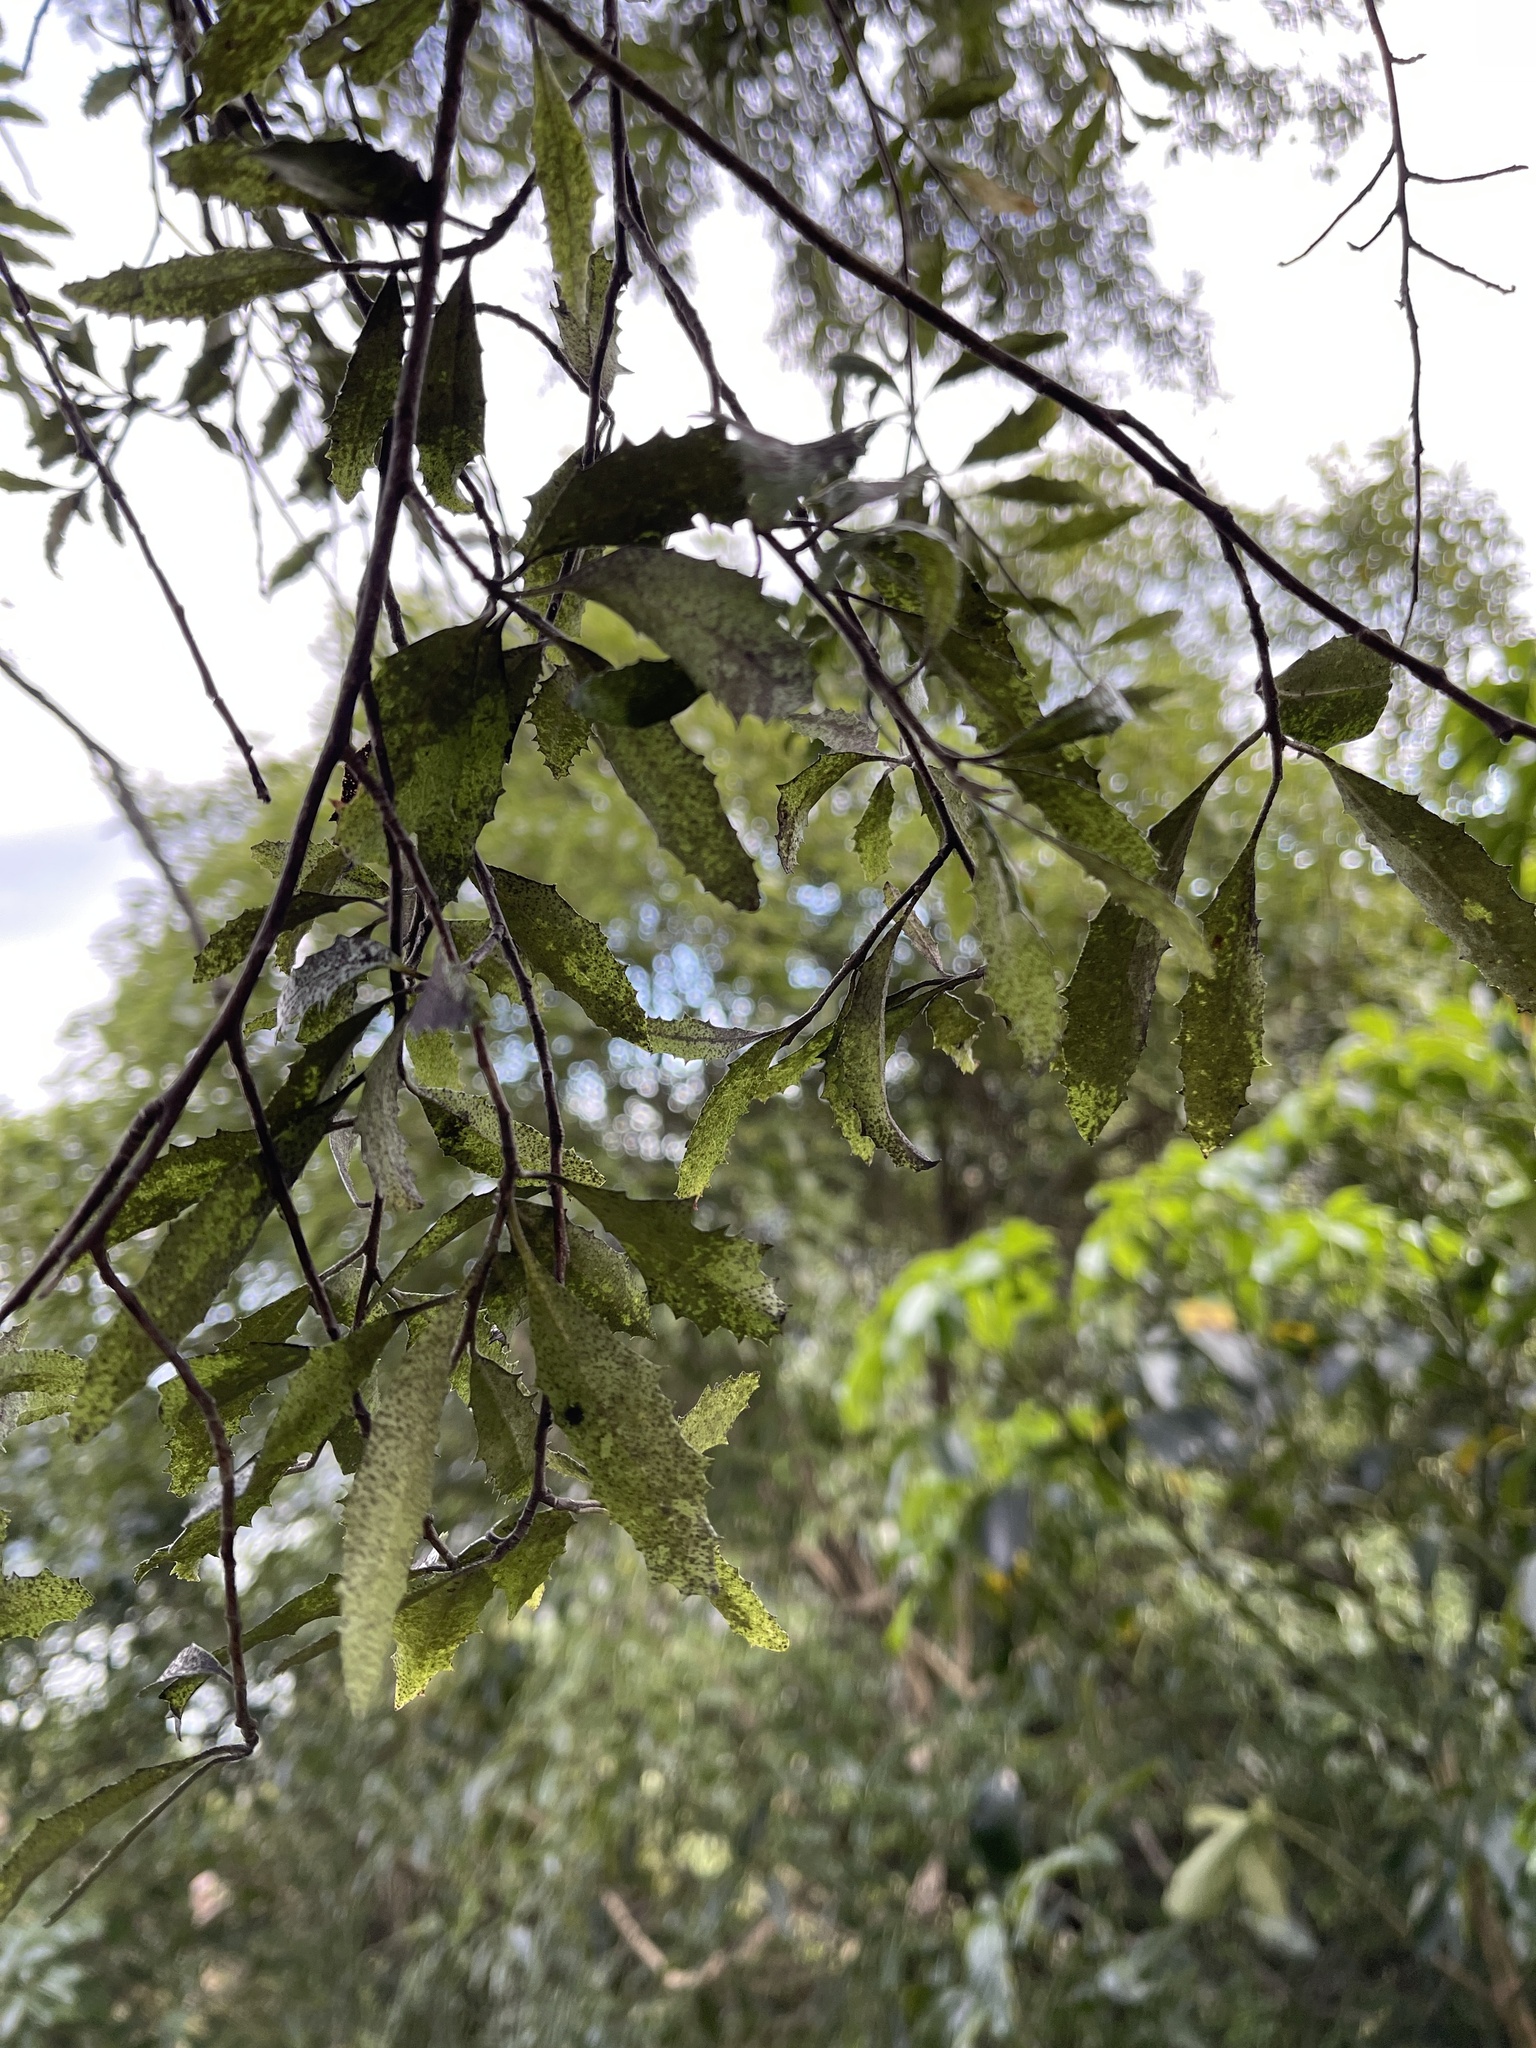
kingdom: Plantae
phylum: Tracheophyta
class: Magnoliopsida
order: Malvales
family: Malvaceae
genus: Hoheria
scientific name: Hoheria angustifolia
